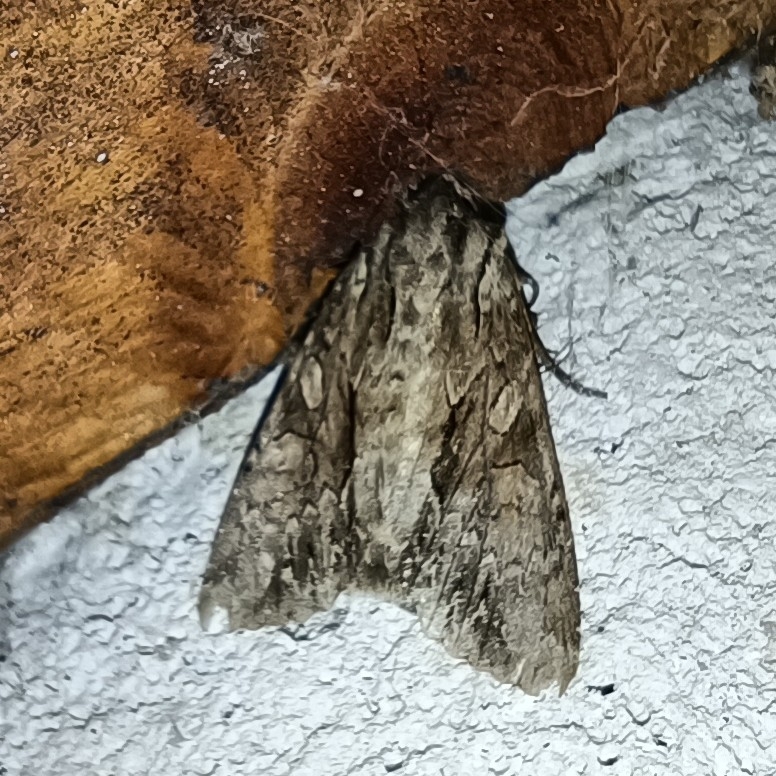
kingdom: Animalia
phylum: Arthropoda
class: Insecta
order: Lepidoptera
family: Noctuidae
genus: Apamea
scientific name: Apamea monoglypha
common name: Dark arches
